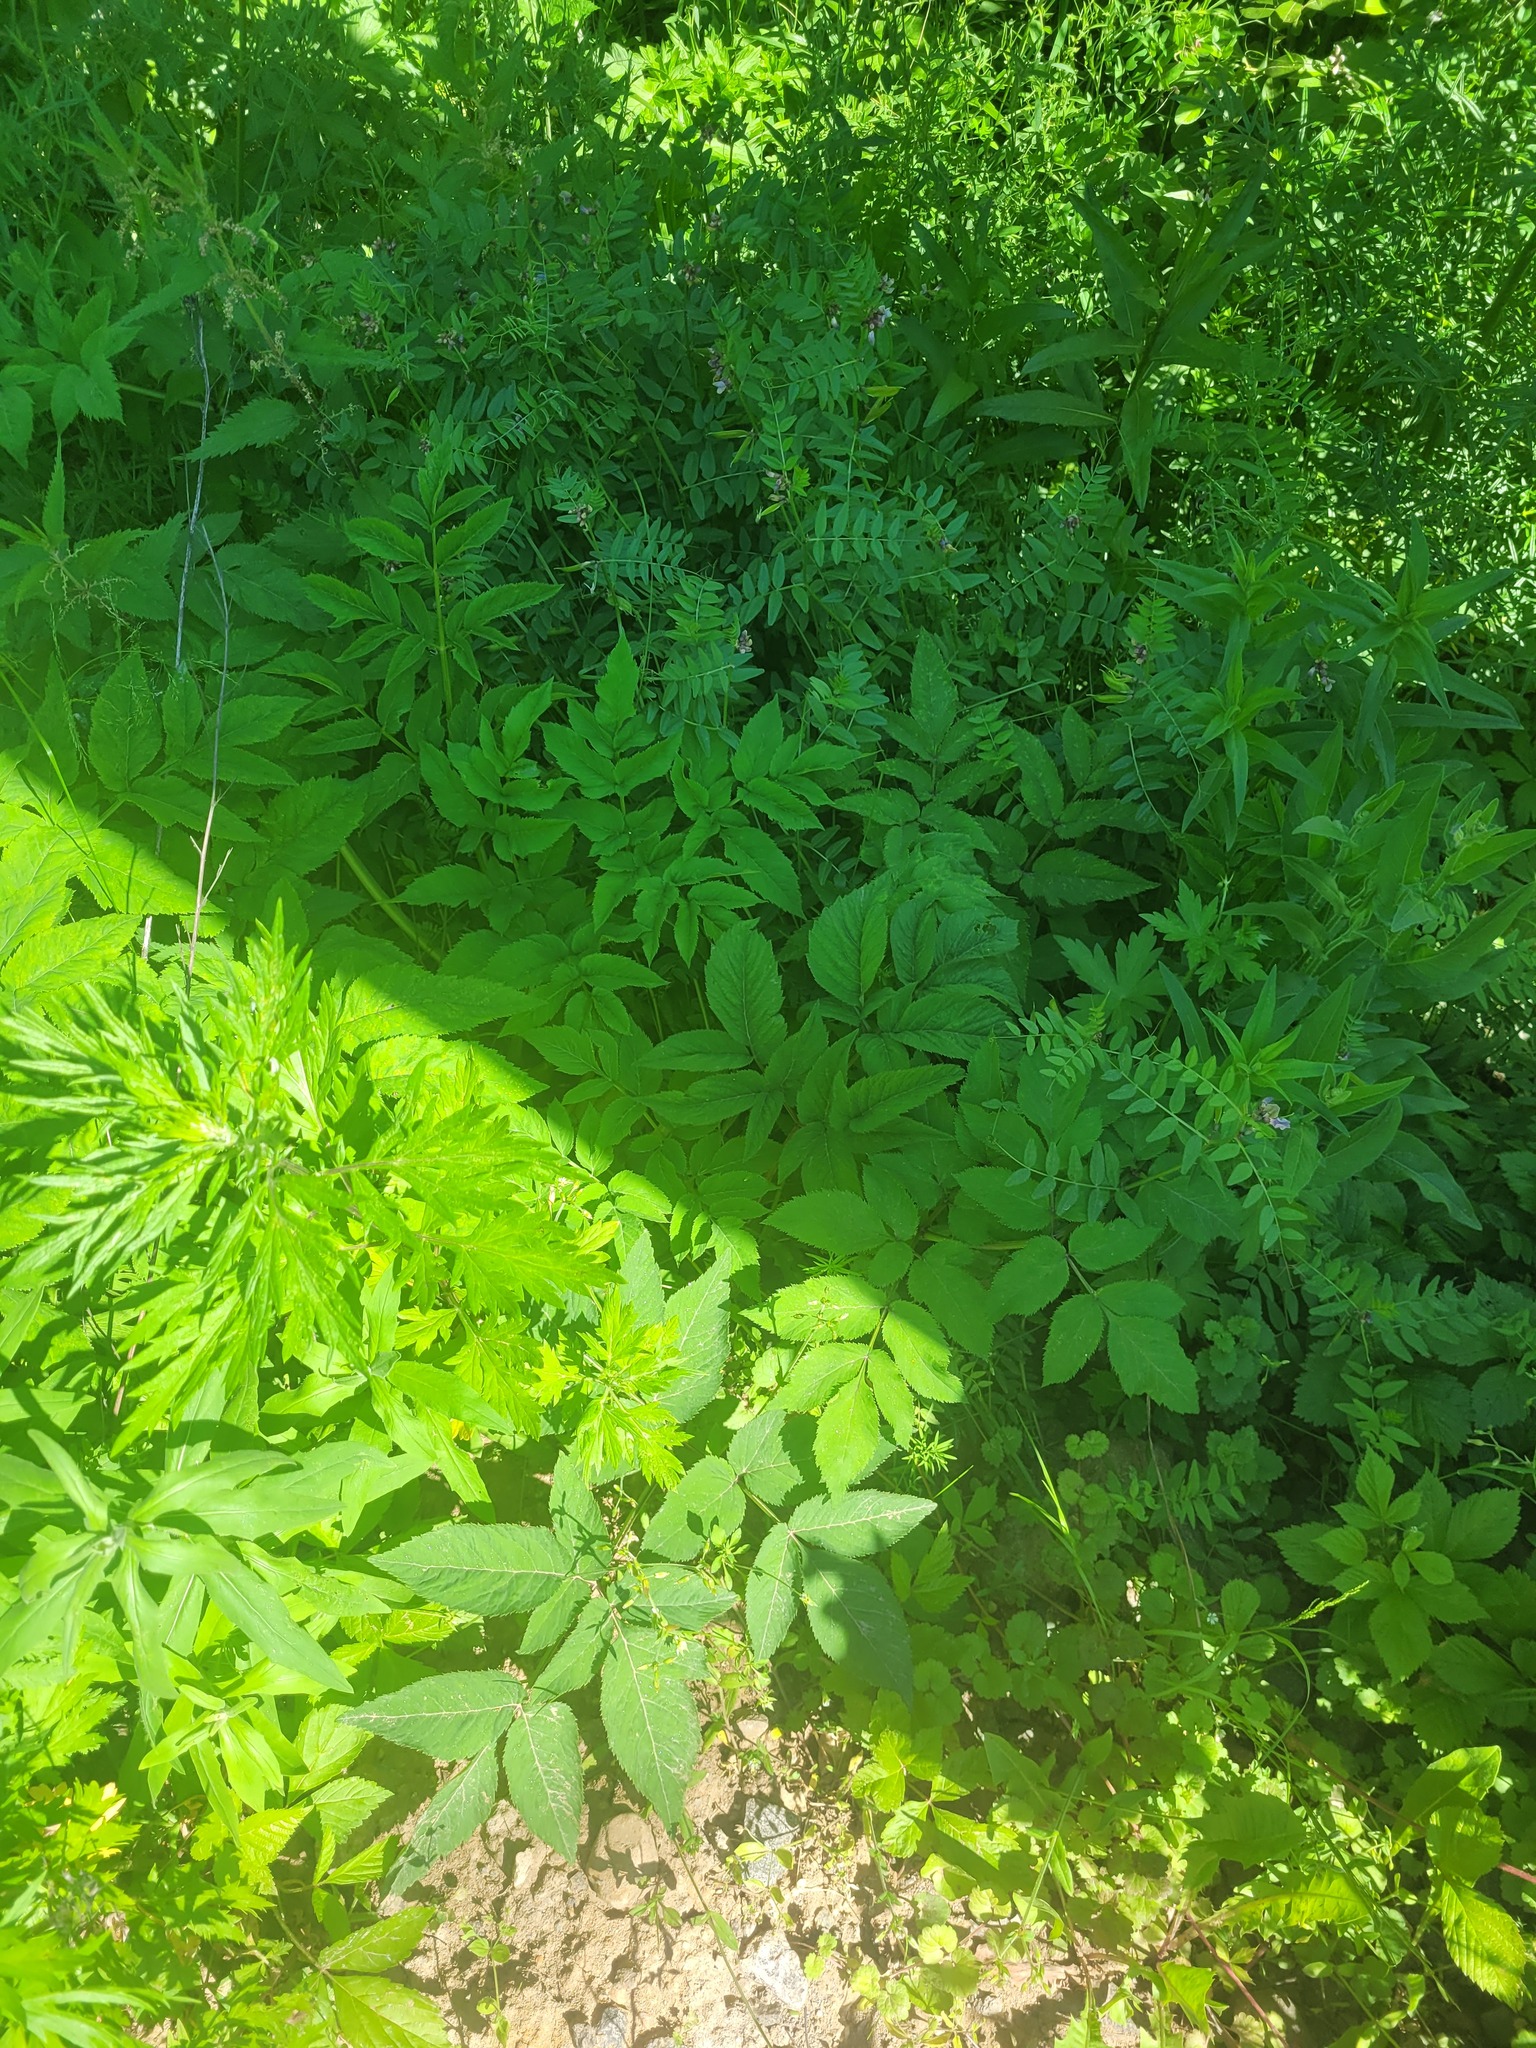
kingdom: Plantae
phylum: Tracheophyta
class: Magnoliopsida
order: Apiales
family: Apiaceae
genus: Angelica
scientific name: Angelica sylvestris
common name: Wild angelica
